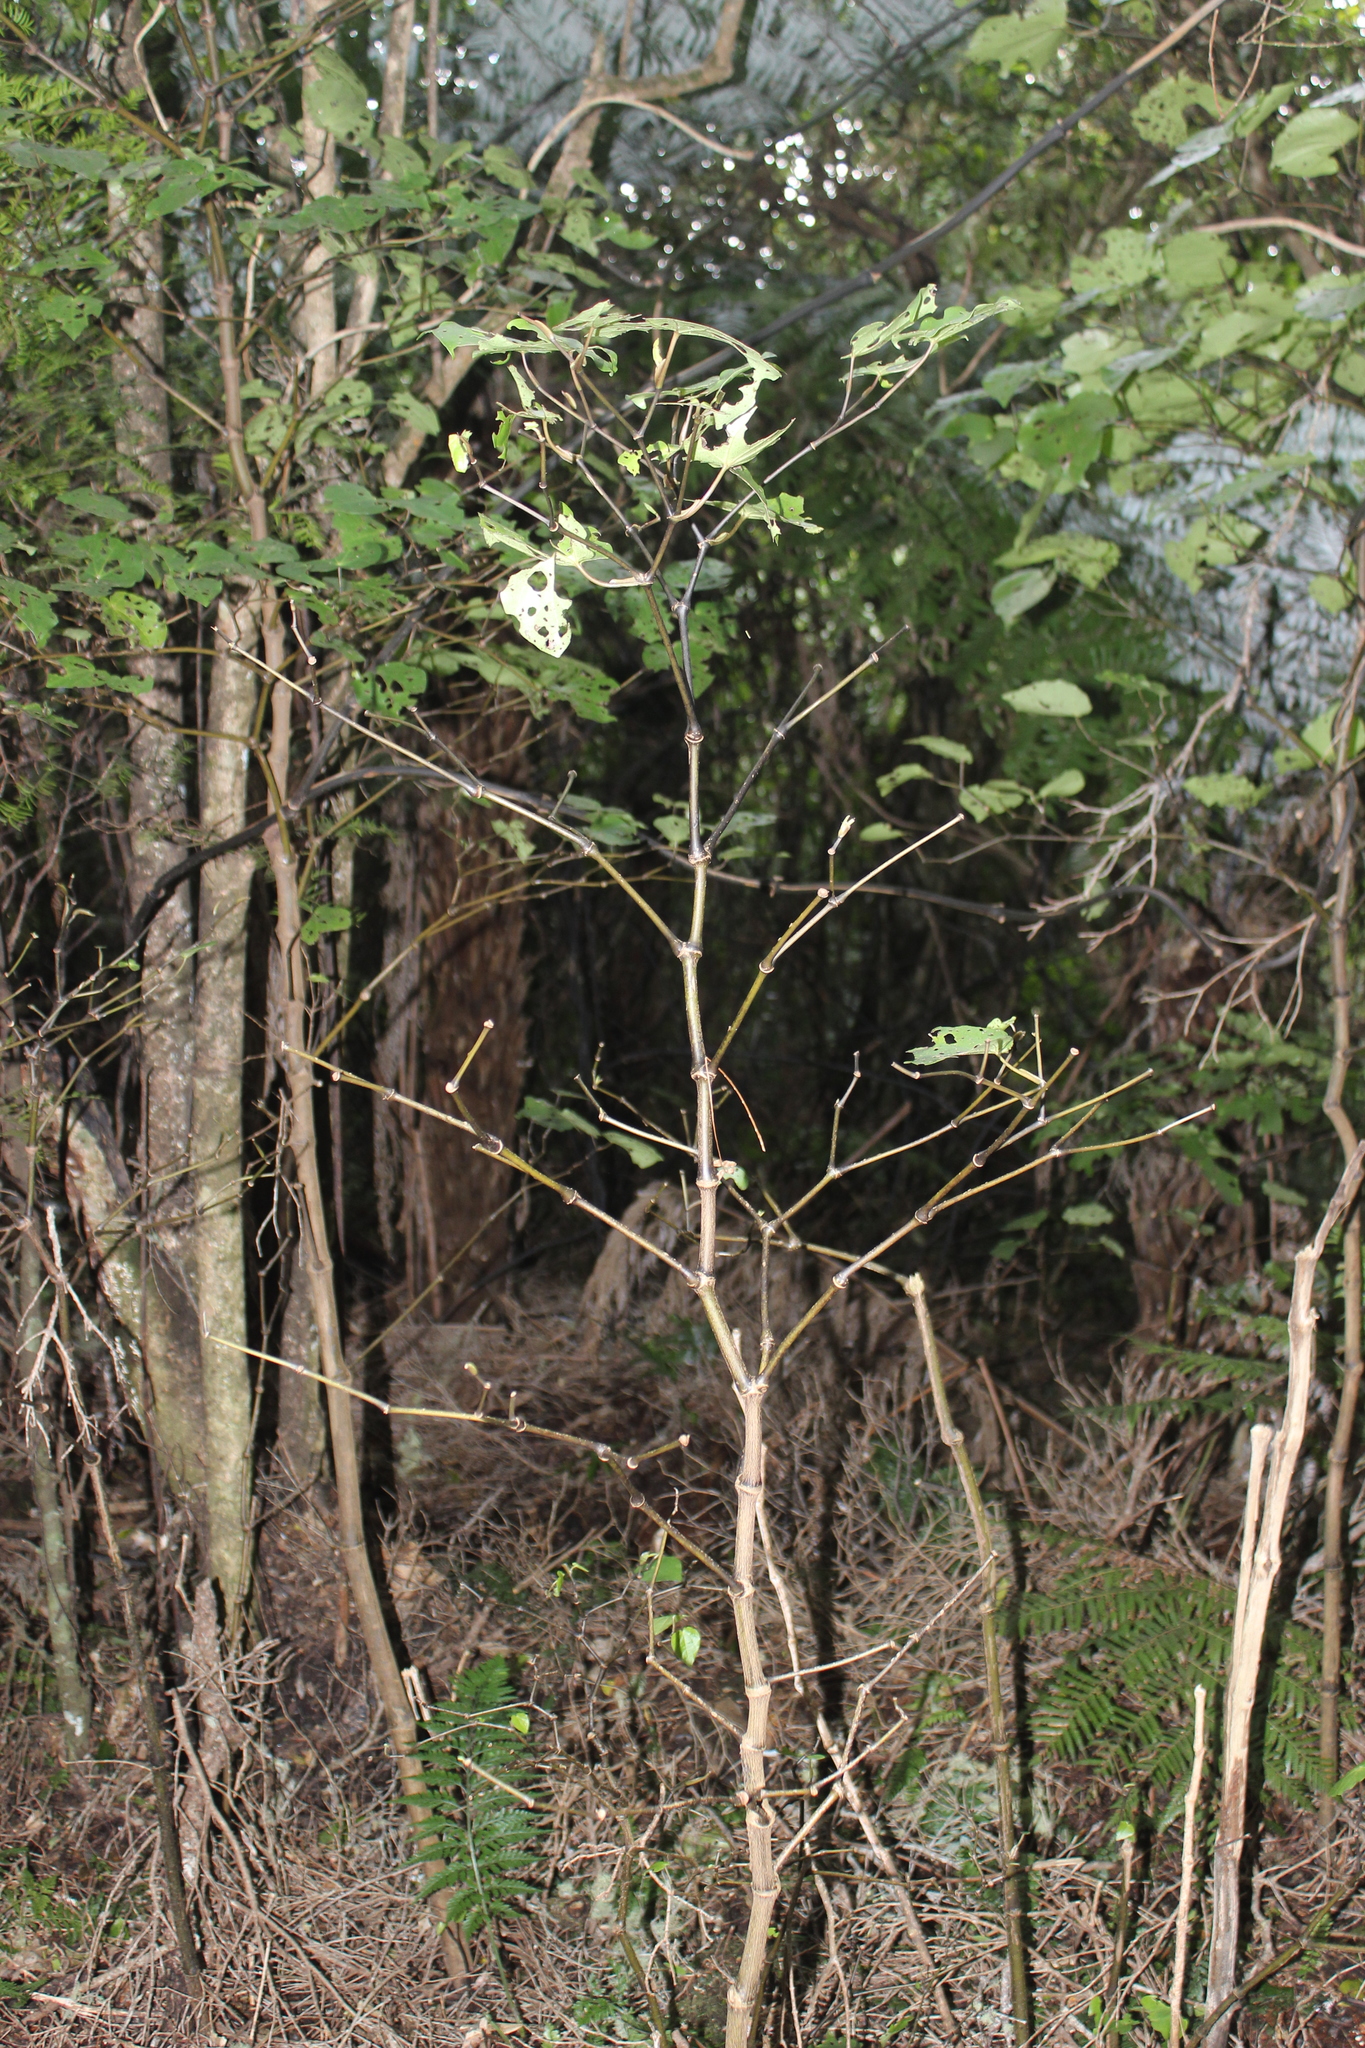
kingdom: Plantae
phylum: Tracheophyta
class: Magnoliopsida
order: Piperales
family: Piperaceae
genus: Macropiper
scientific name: Macropiper excelsum
